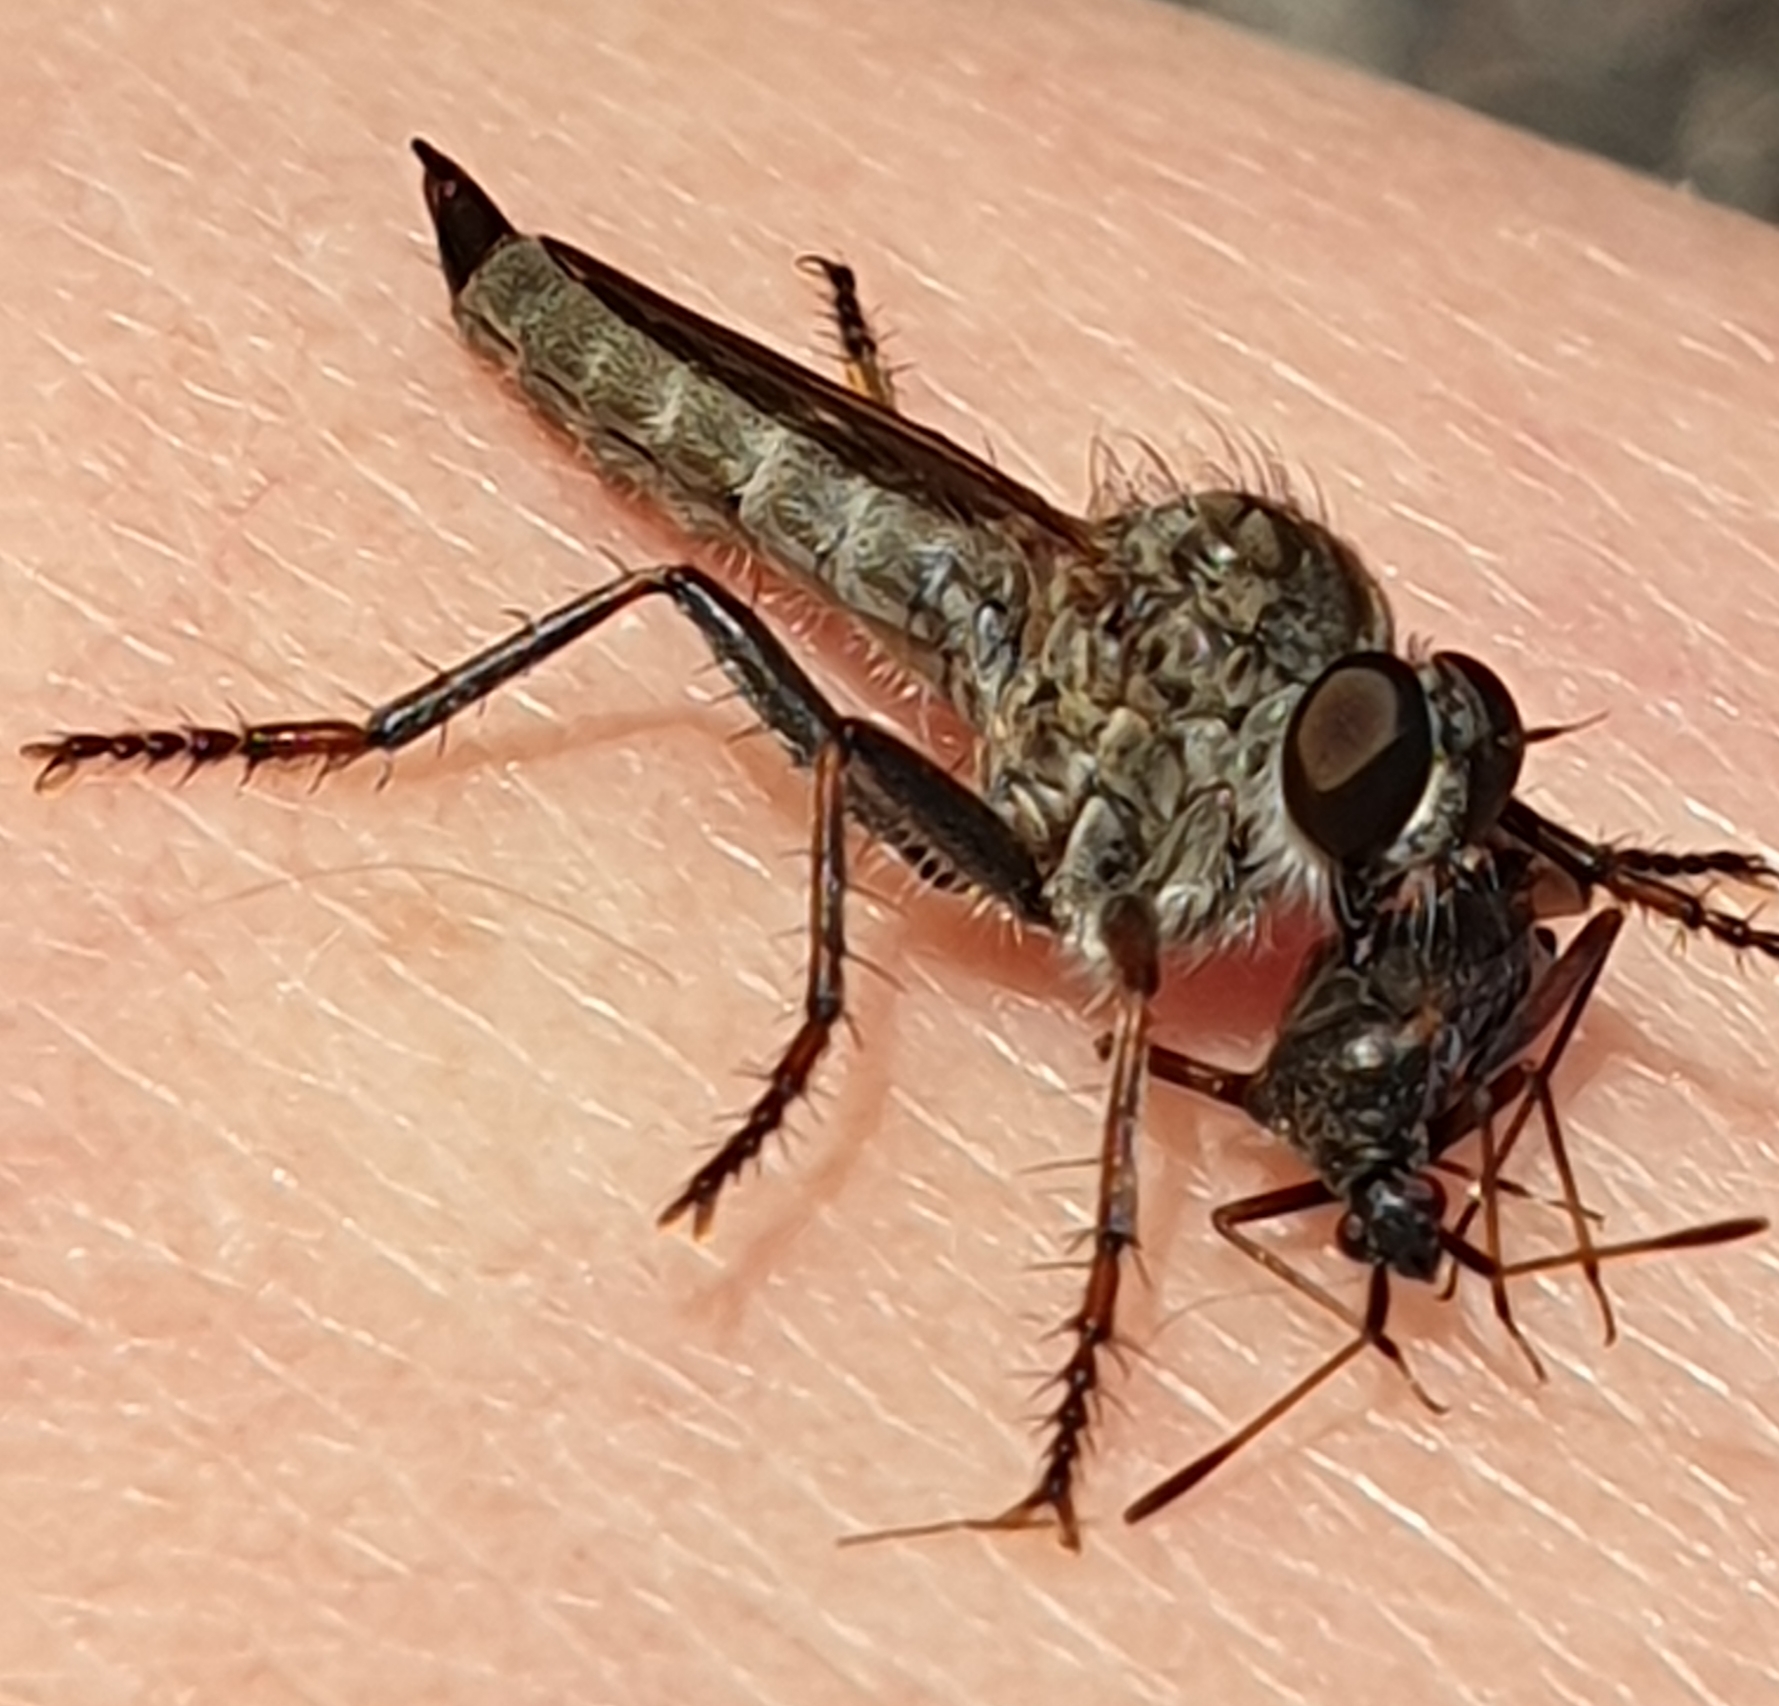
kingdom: Animalia
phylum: Arthropoda
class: Insecta
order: Diptera
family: Asilidae
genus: Machimus
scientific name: Machimus atricapillus
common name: Kite-tailed robberfly
